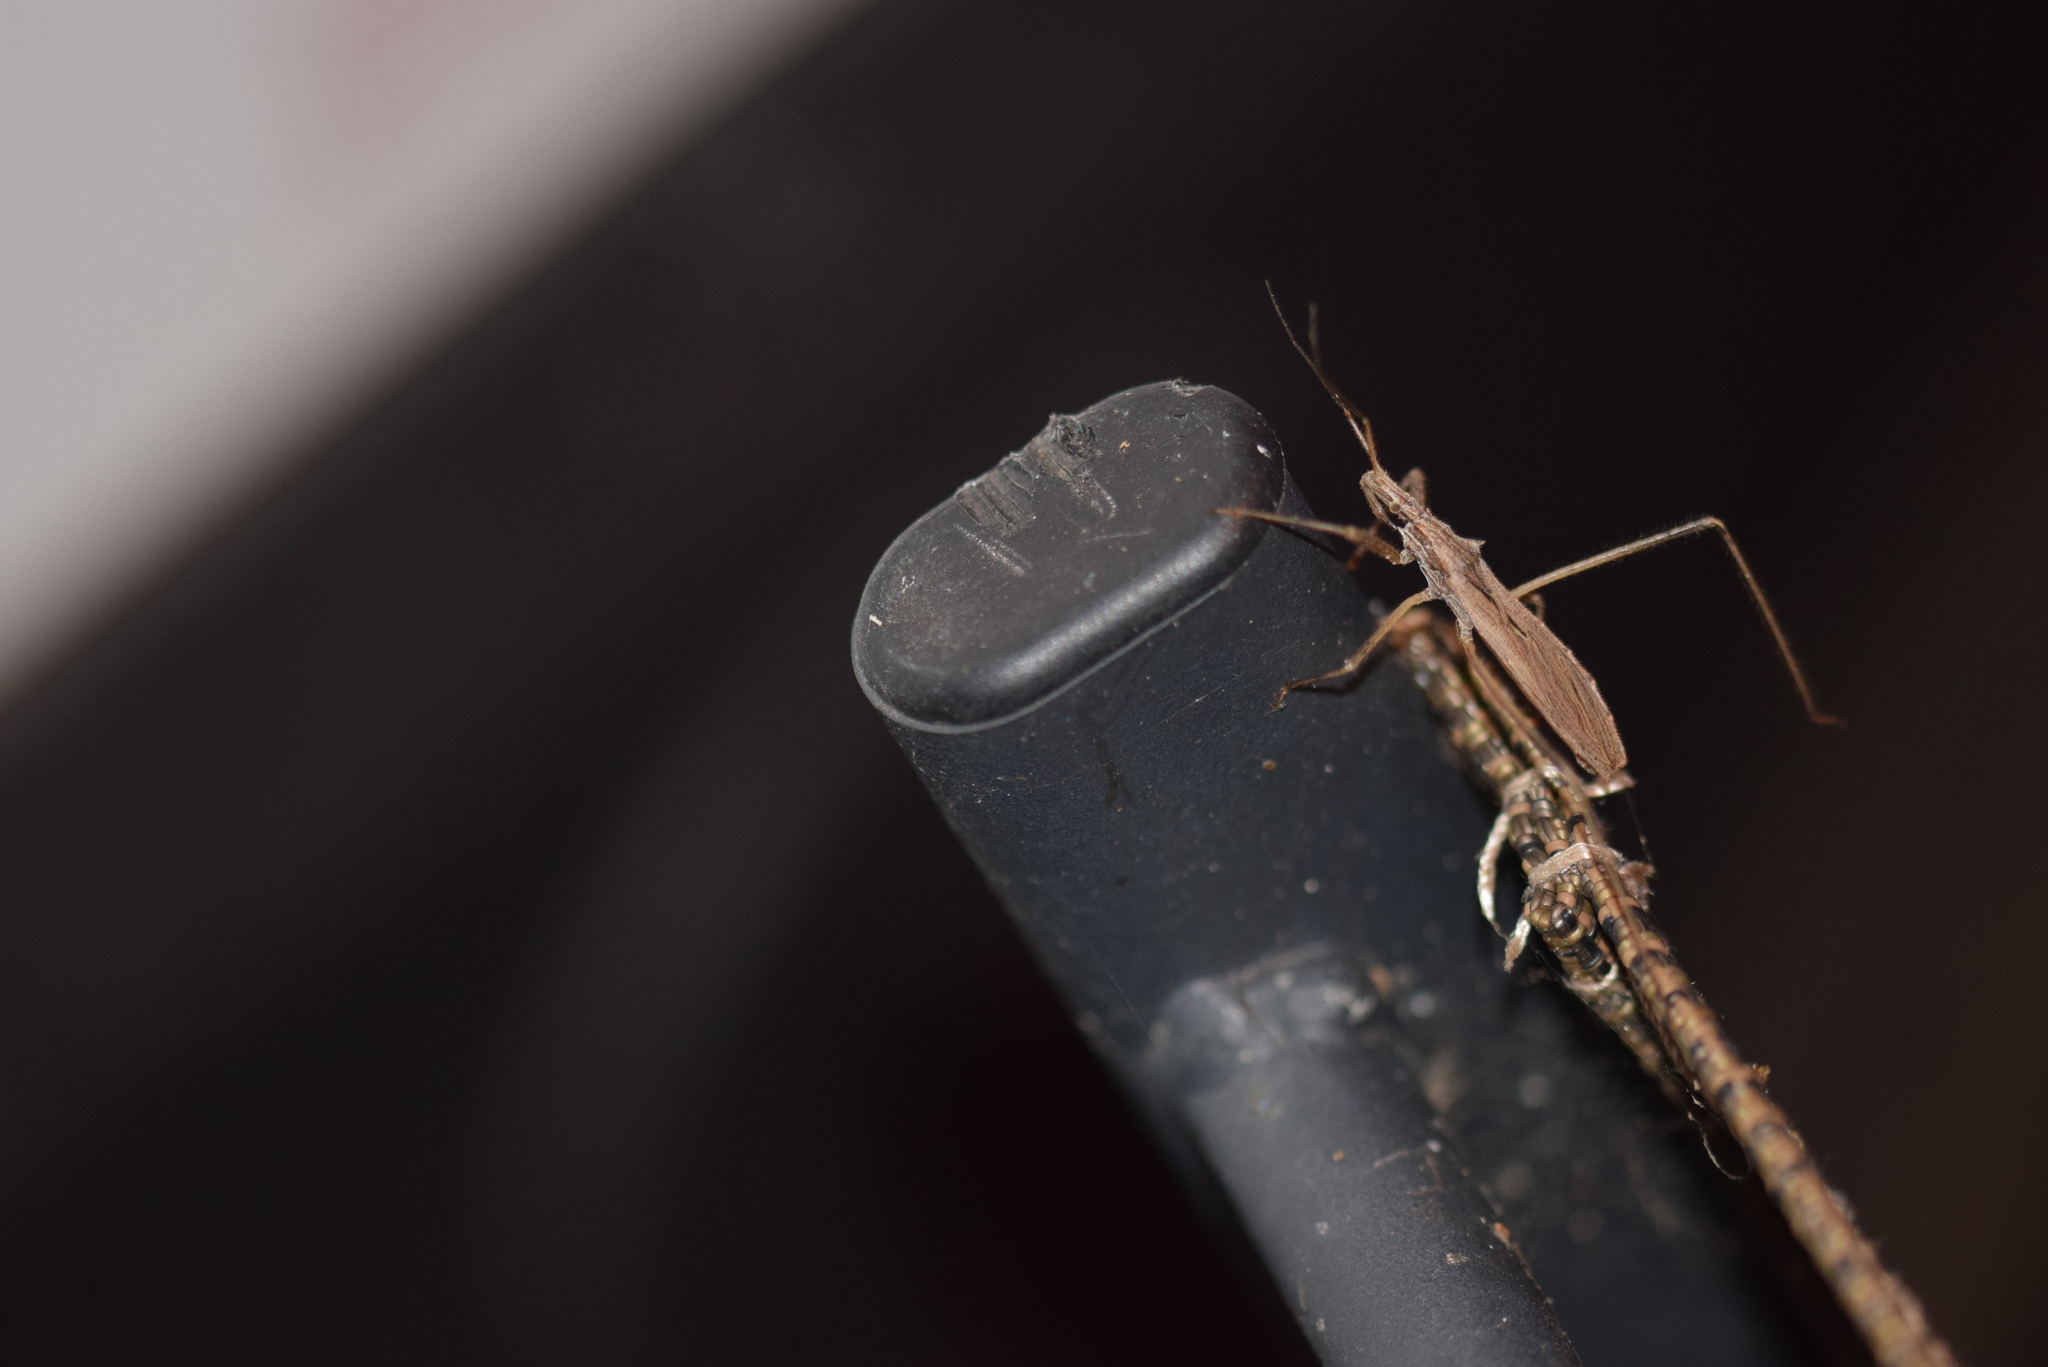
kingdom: Animalia
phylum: Arthropoda
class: Insecta
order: Hemiptera
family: Reduviidae
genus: Stenopoda
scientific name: Stenopoda spinulosa
